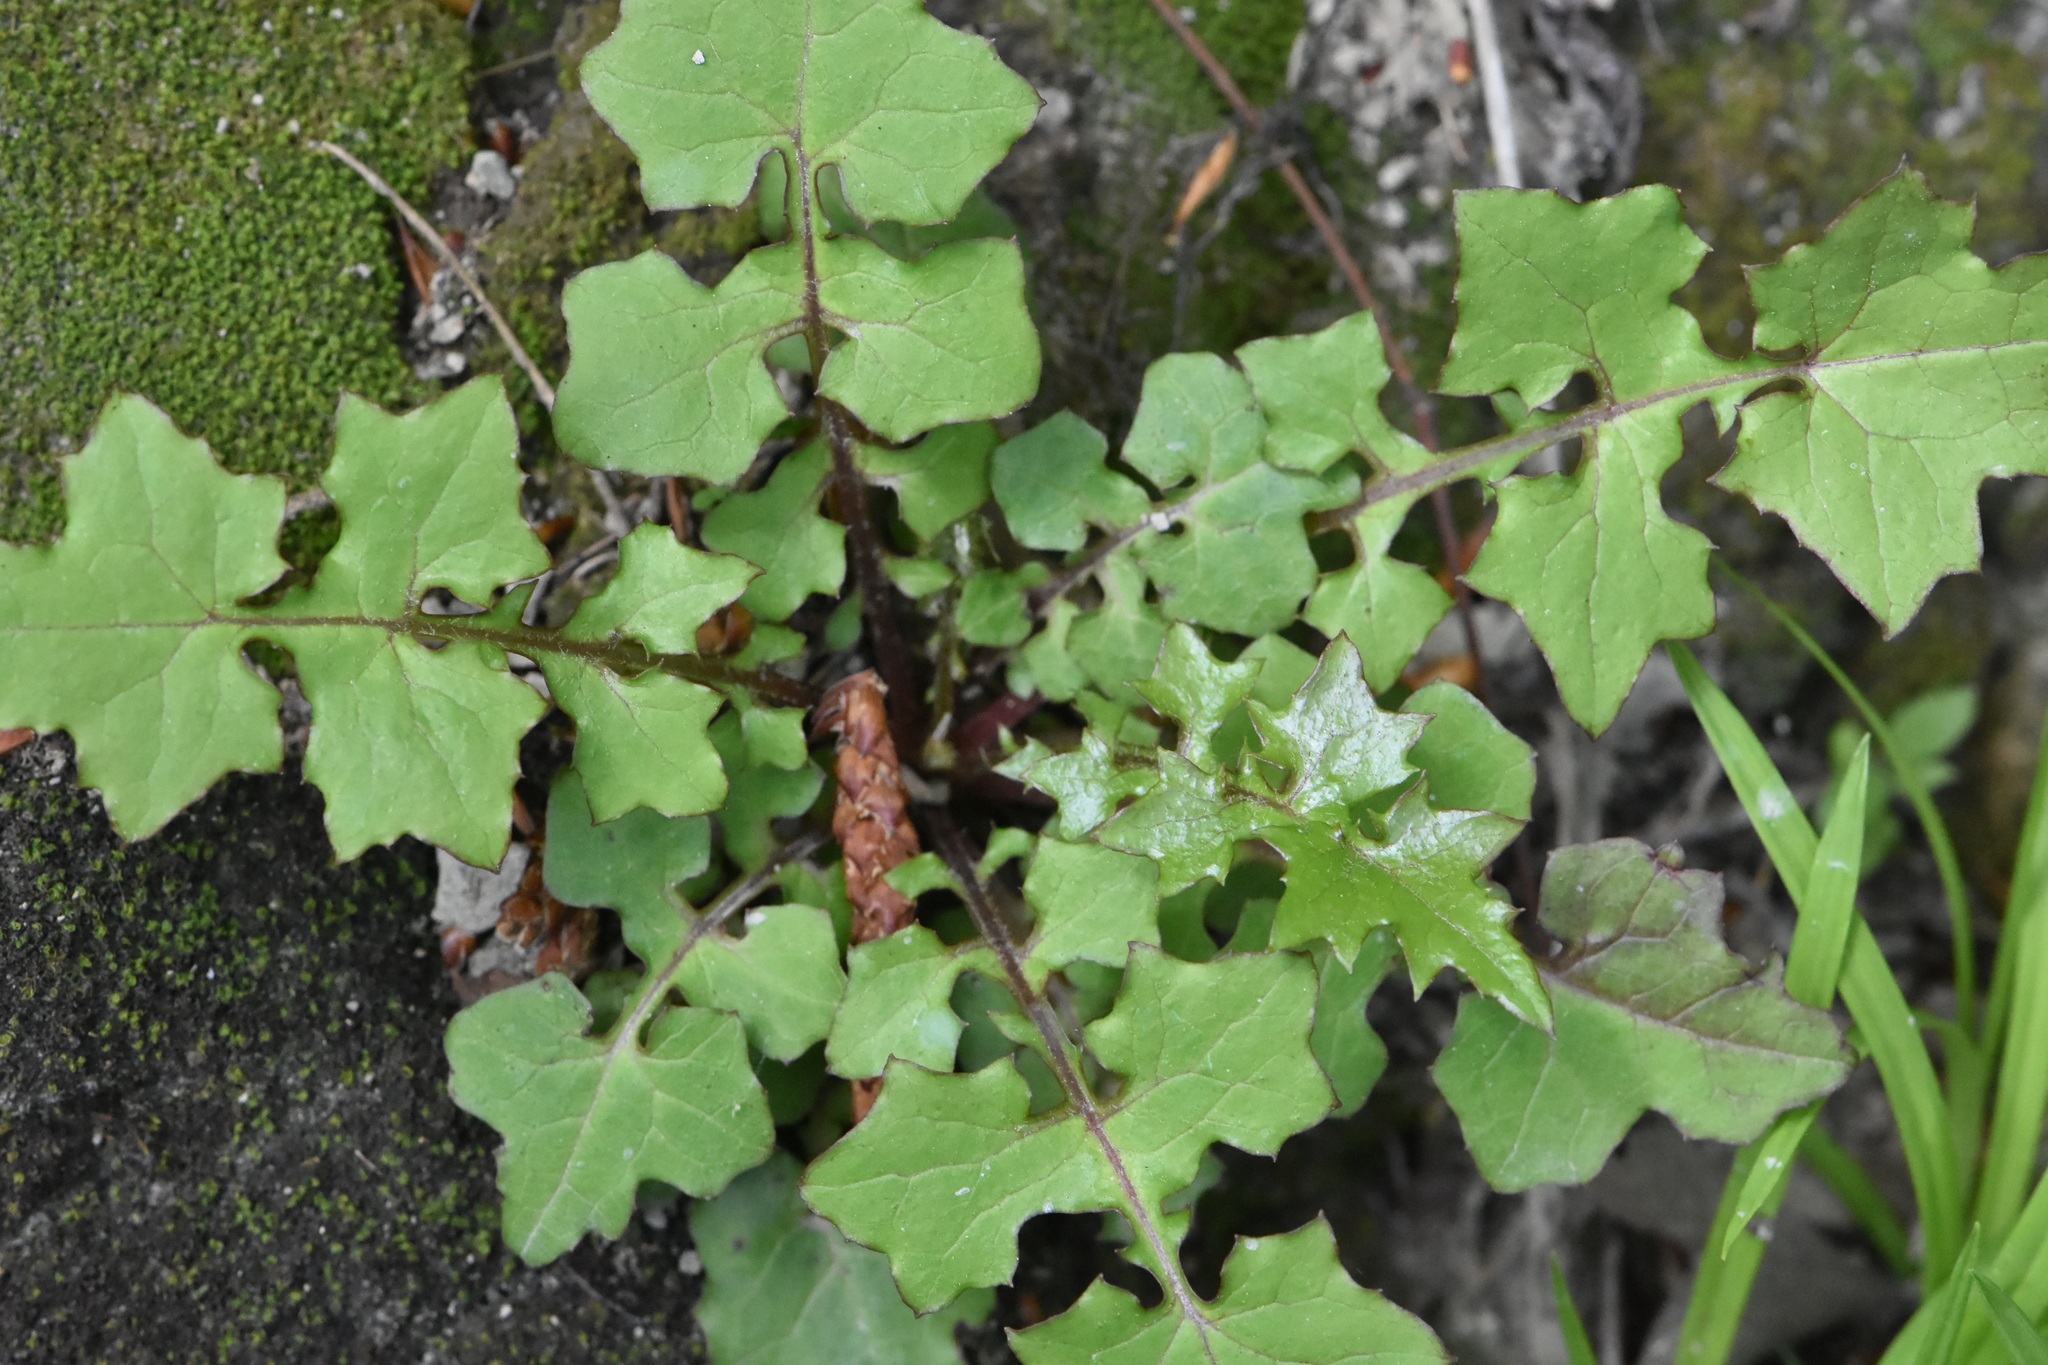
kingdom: Plantae
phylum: Tracheophyta
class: Magnoliopsida
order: Asterales
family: Asteraceae
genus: Mycelis
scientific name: Mycelis muralis
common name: Wall lettuce
